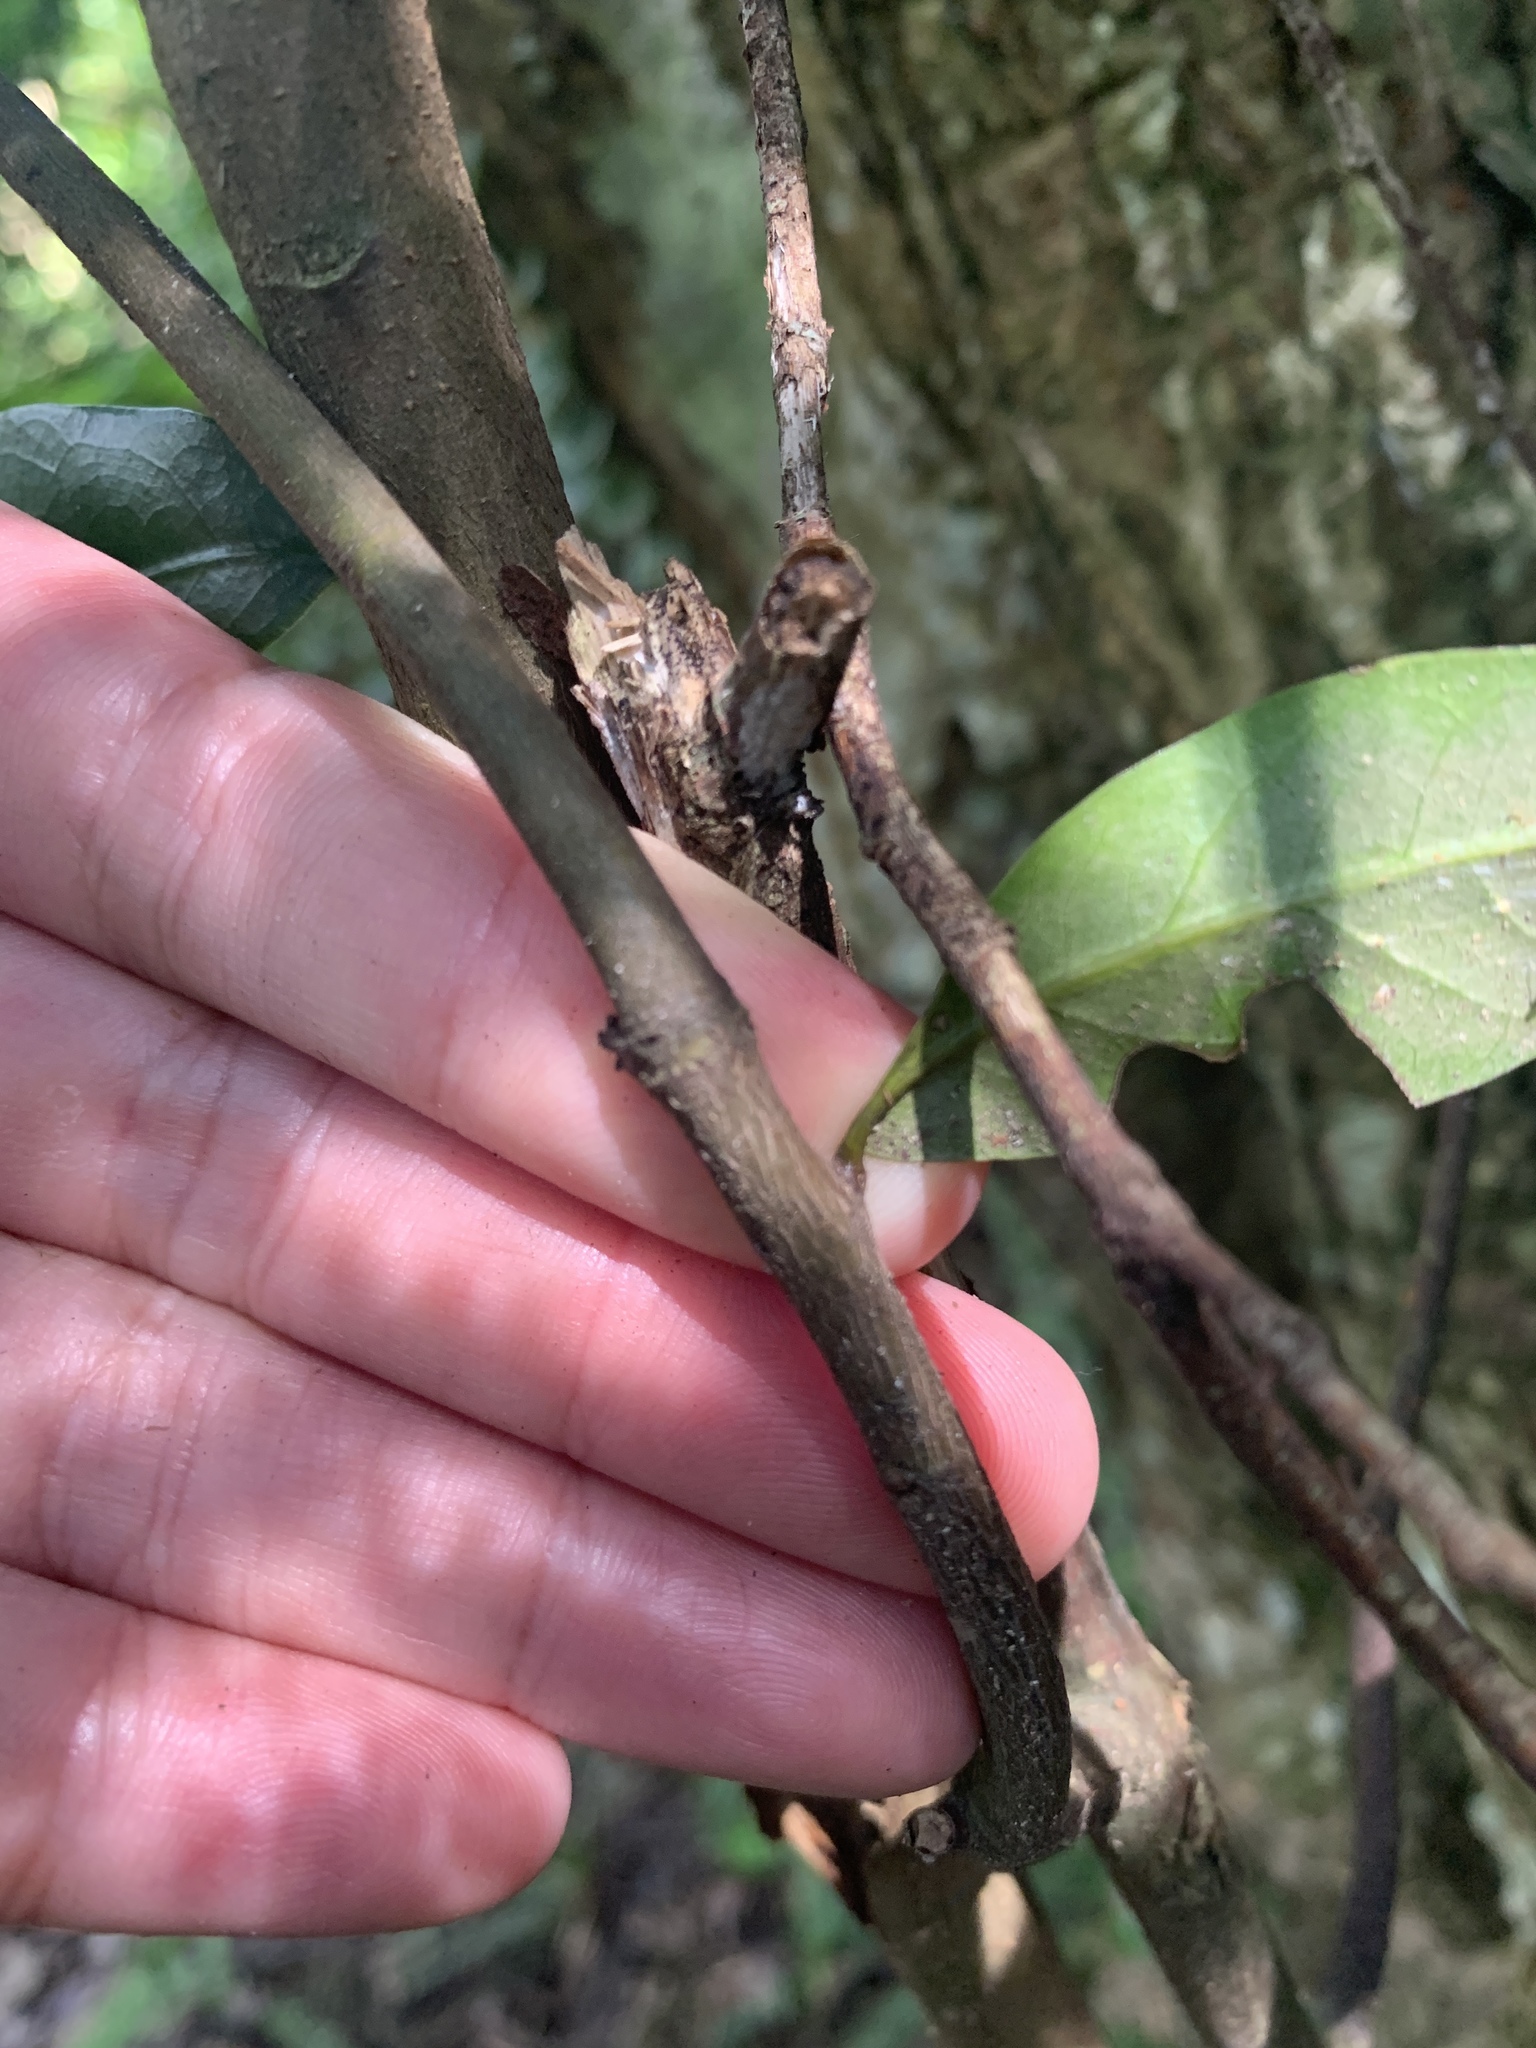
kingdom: Plantae
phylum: Tracheophyta
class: Magnoliopsida
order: Fagales
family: Fagaceae
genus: Lithocarpus
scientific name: Lithocarpus uraianus
